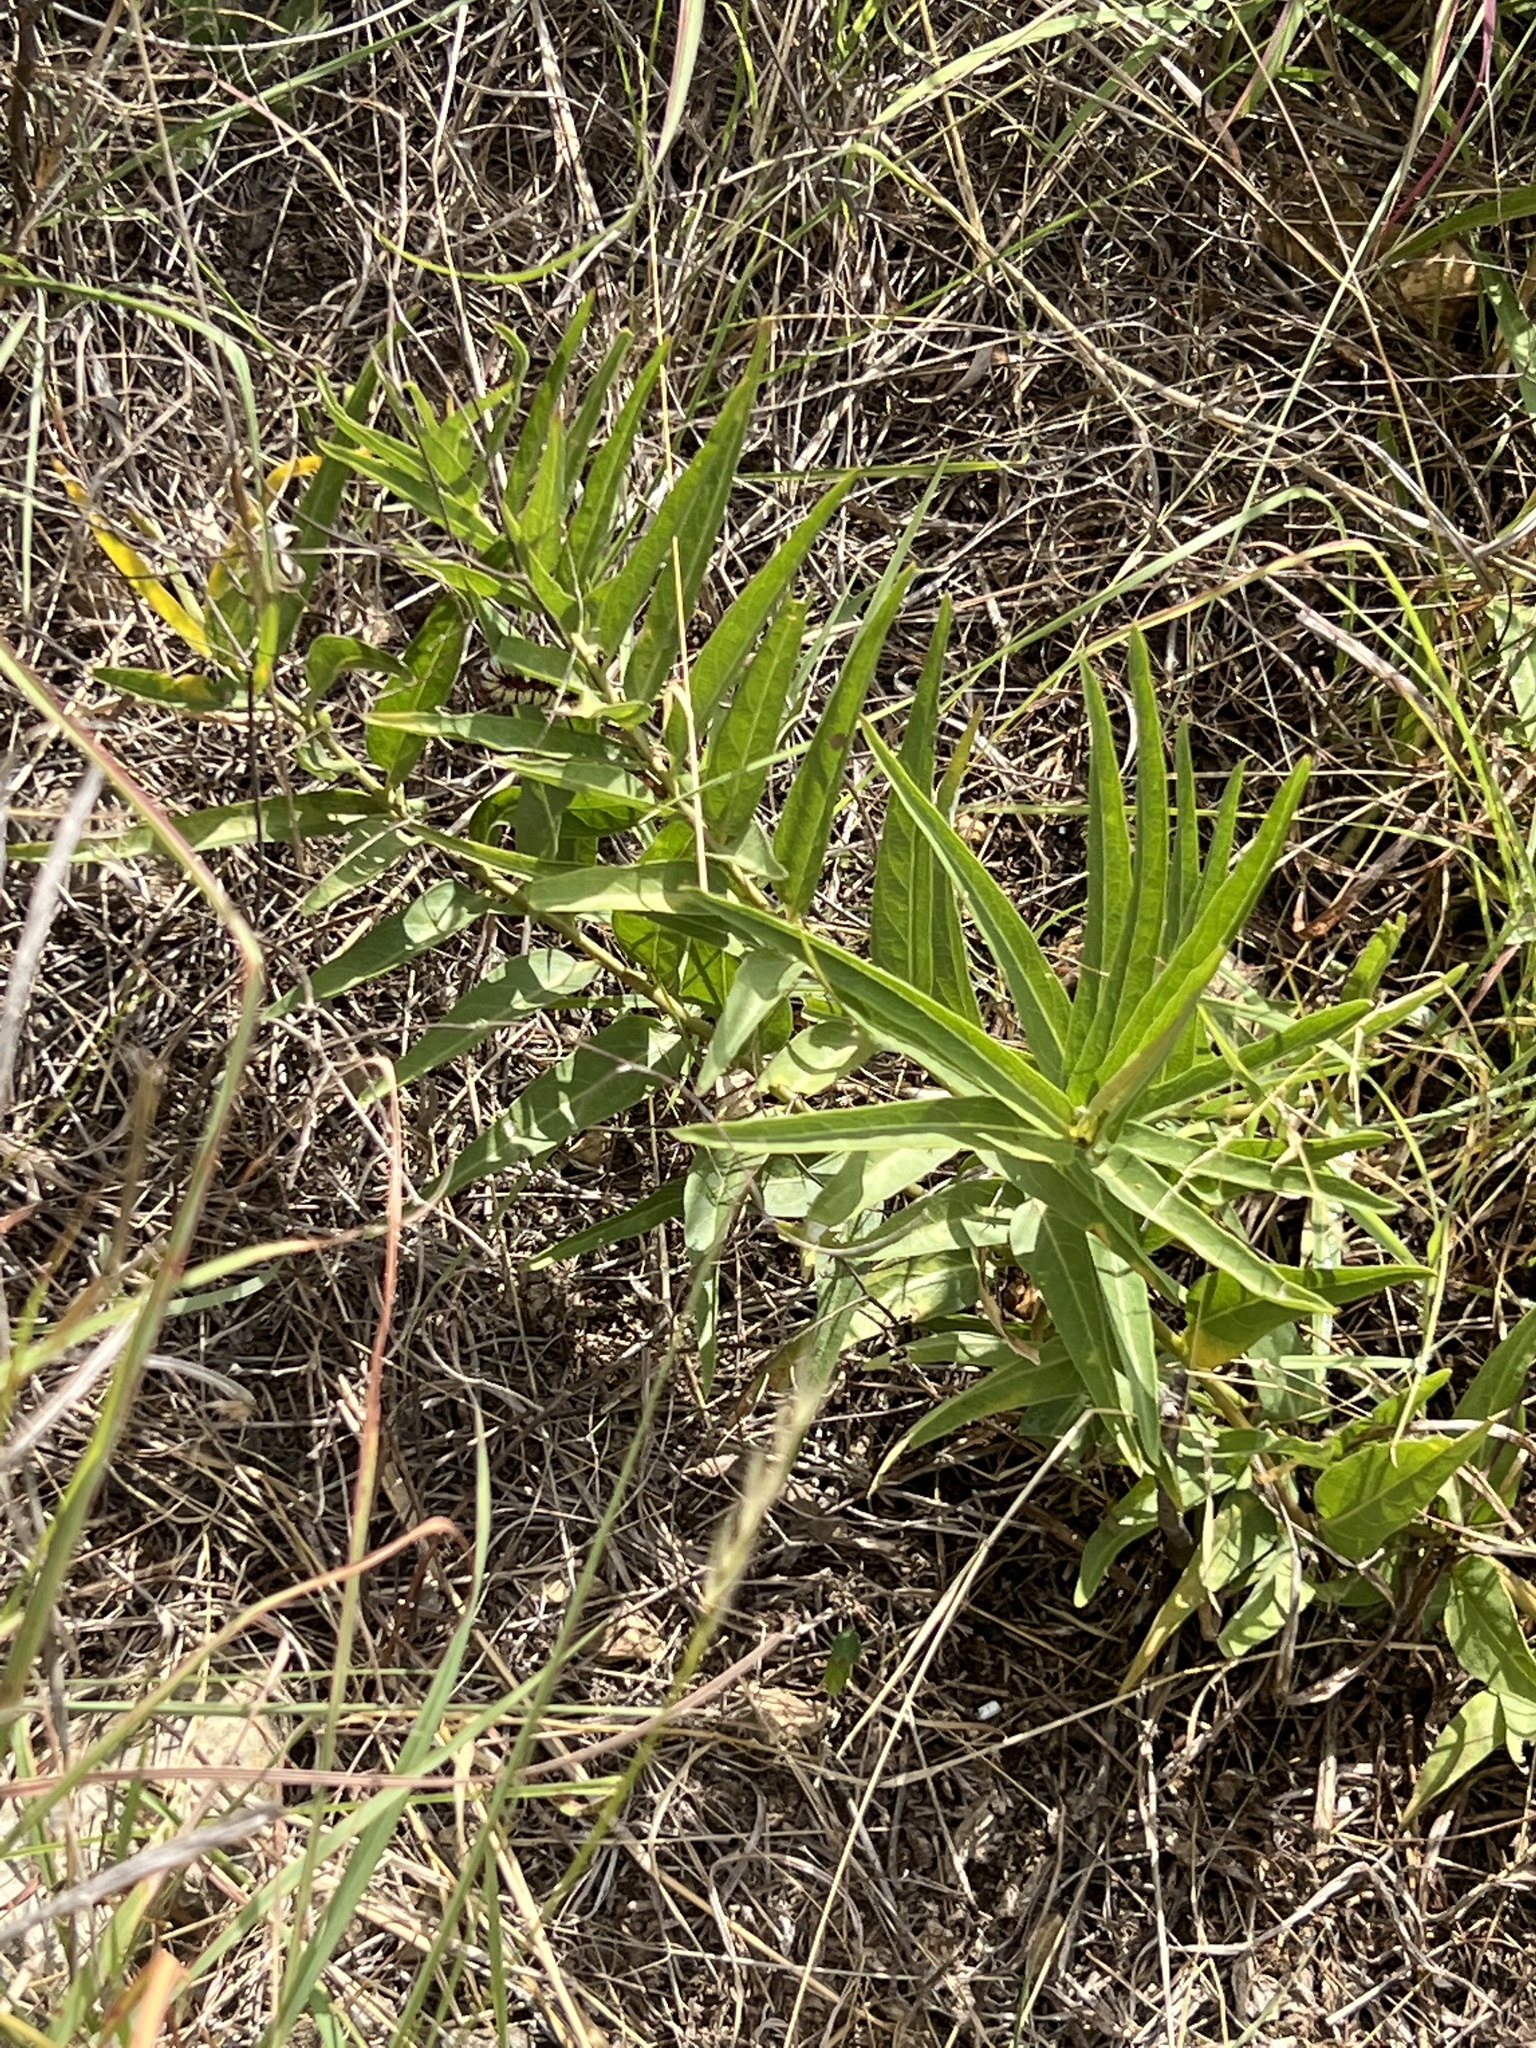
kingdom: Plantae
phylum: Tracheophyta
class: Magnoliopsida
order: Gentianales
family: Apocynaceae
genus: Asclepias
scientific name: Asclepias asperula
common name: Antelope horns
